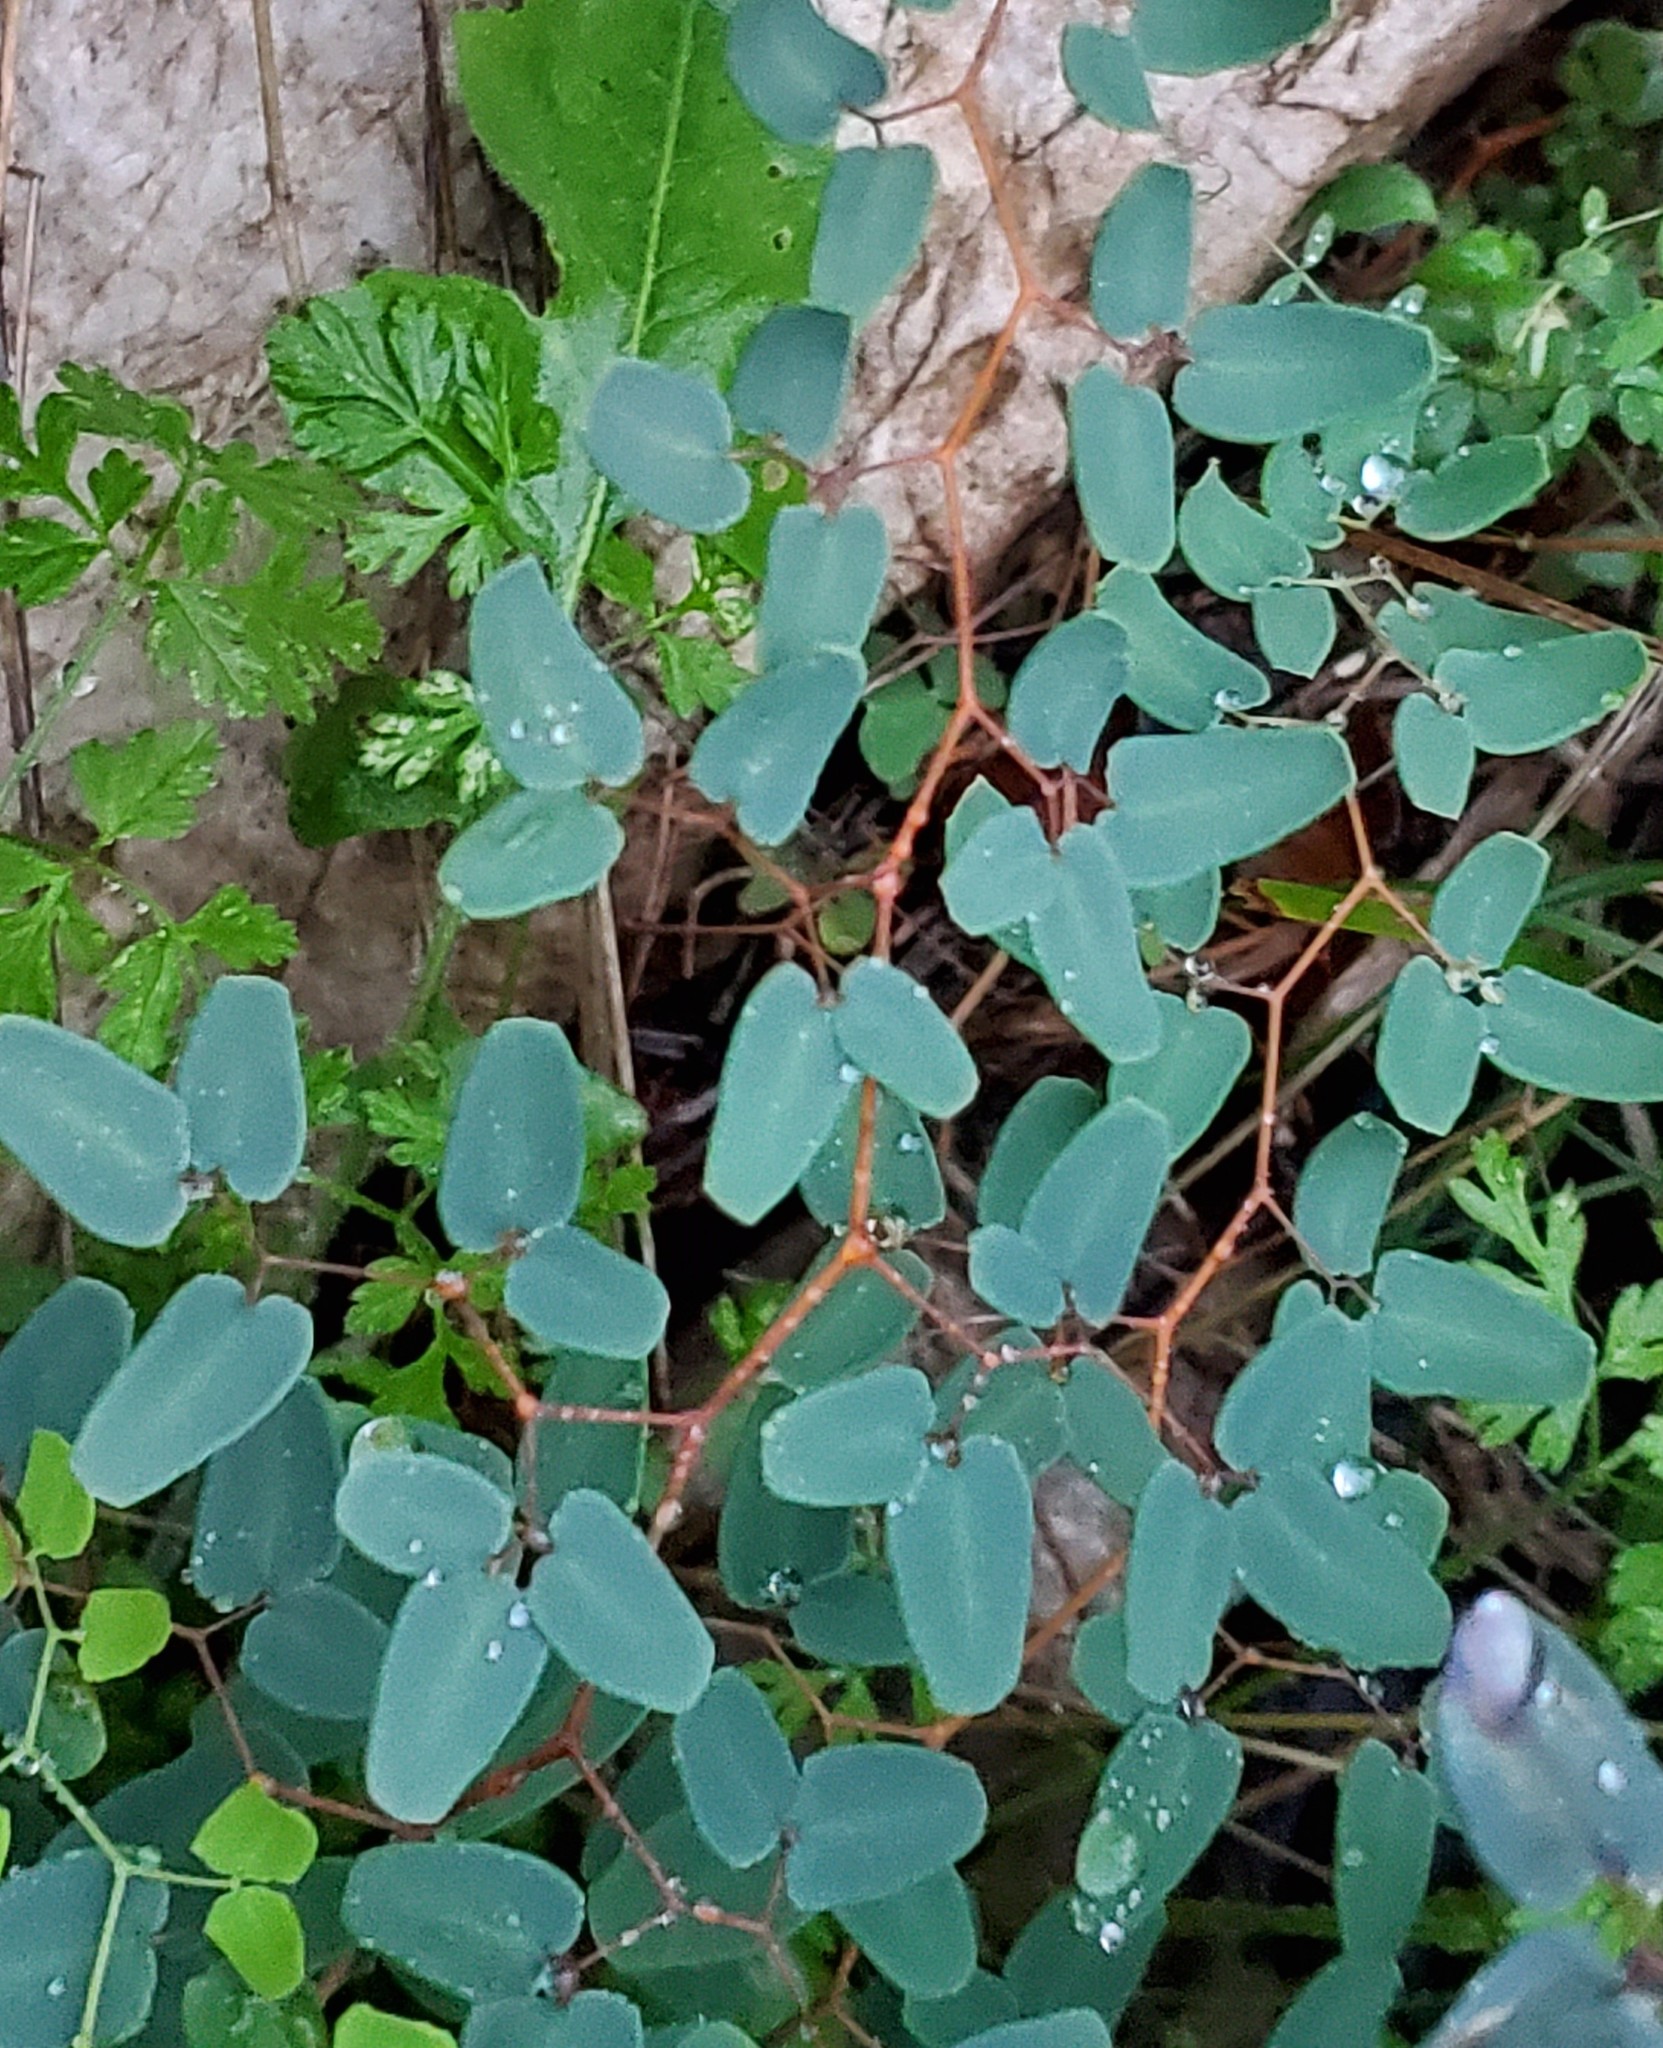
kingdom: Plantae
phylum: Tracheophyta
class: Polypodiopsida
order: Polypodiales
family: Pteridaceae
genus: Pellaea
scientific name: Pellaea ovata
